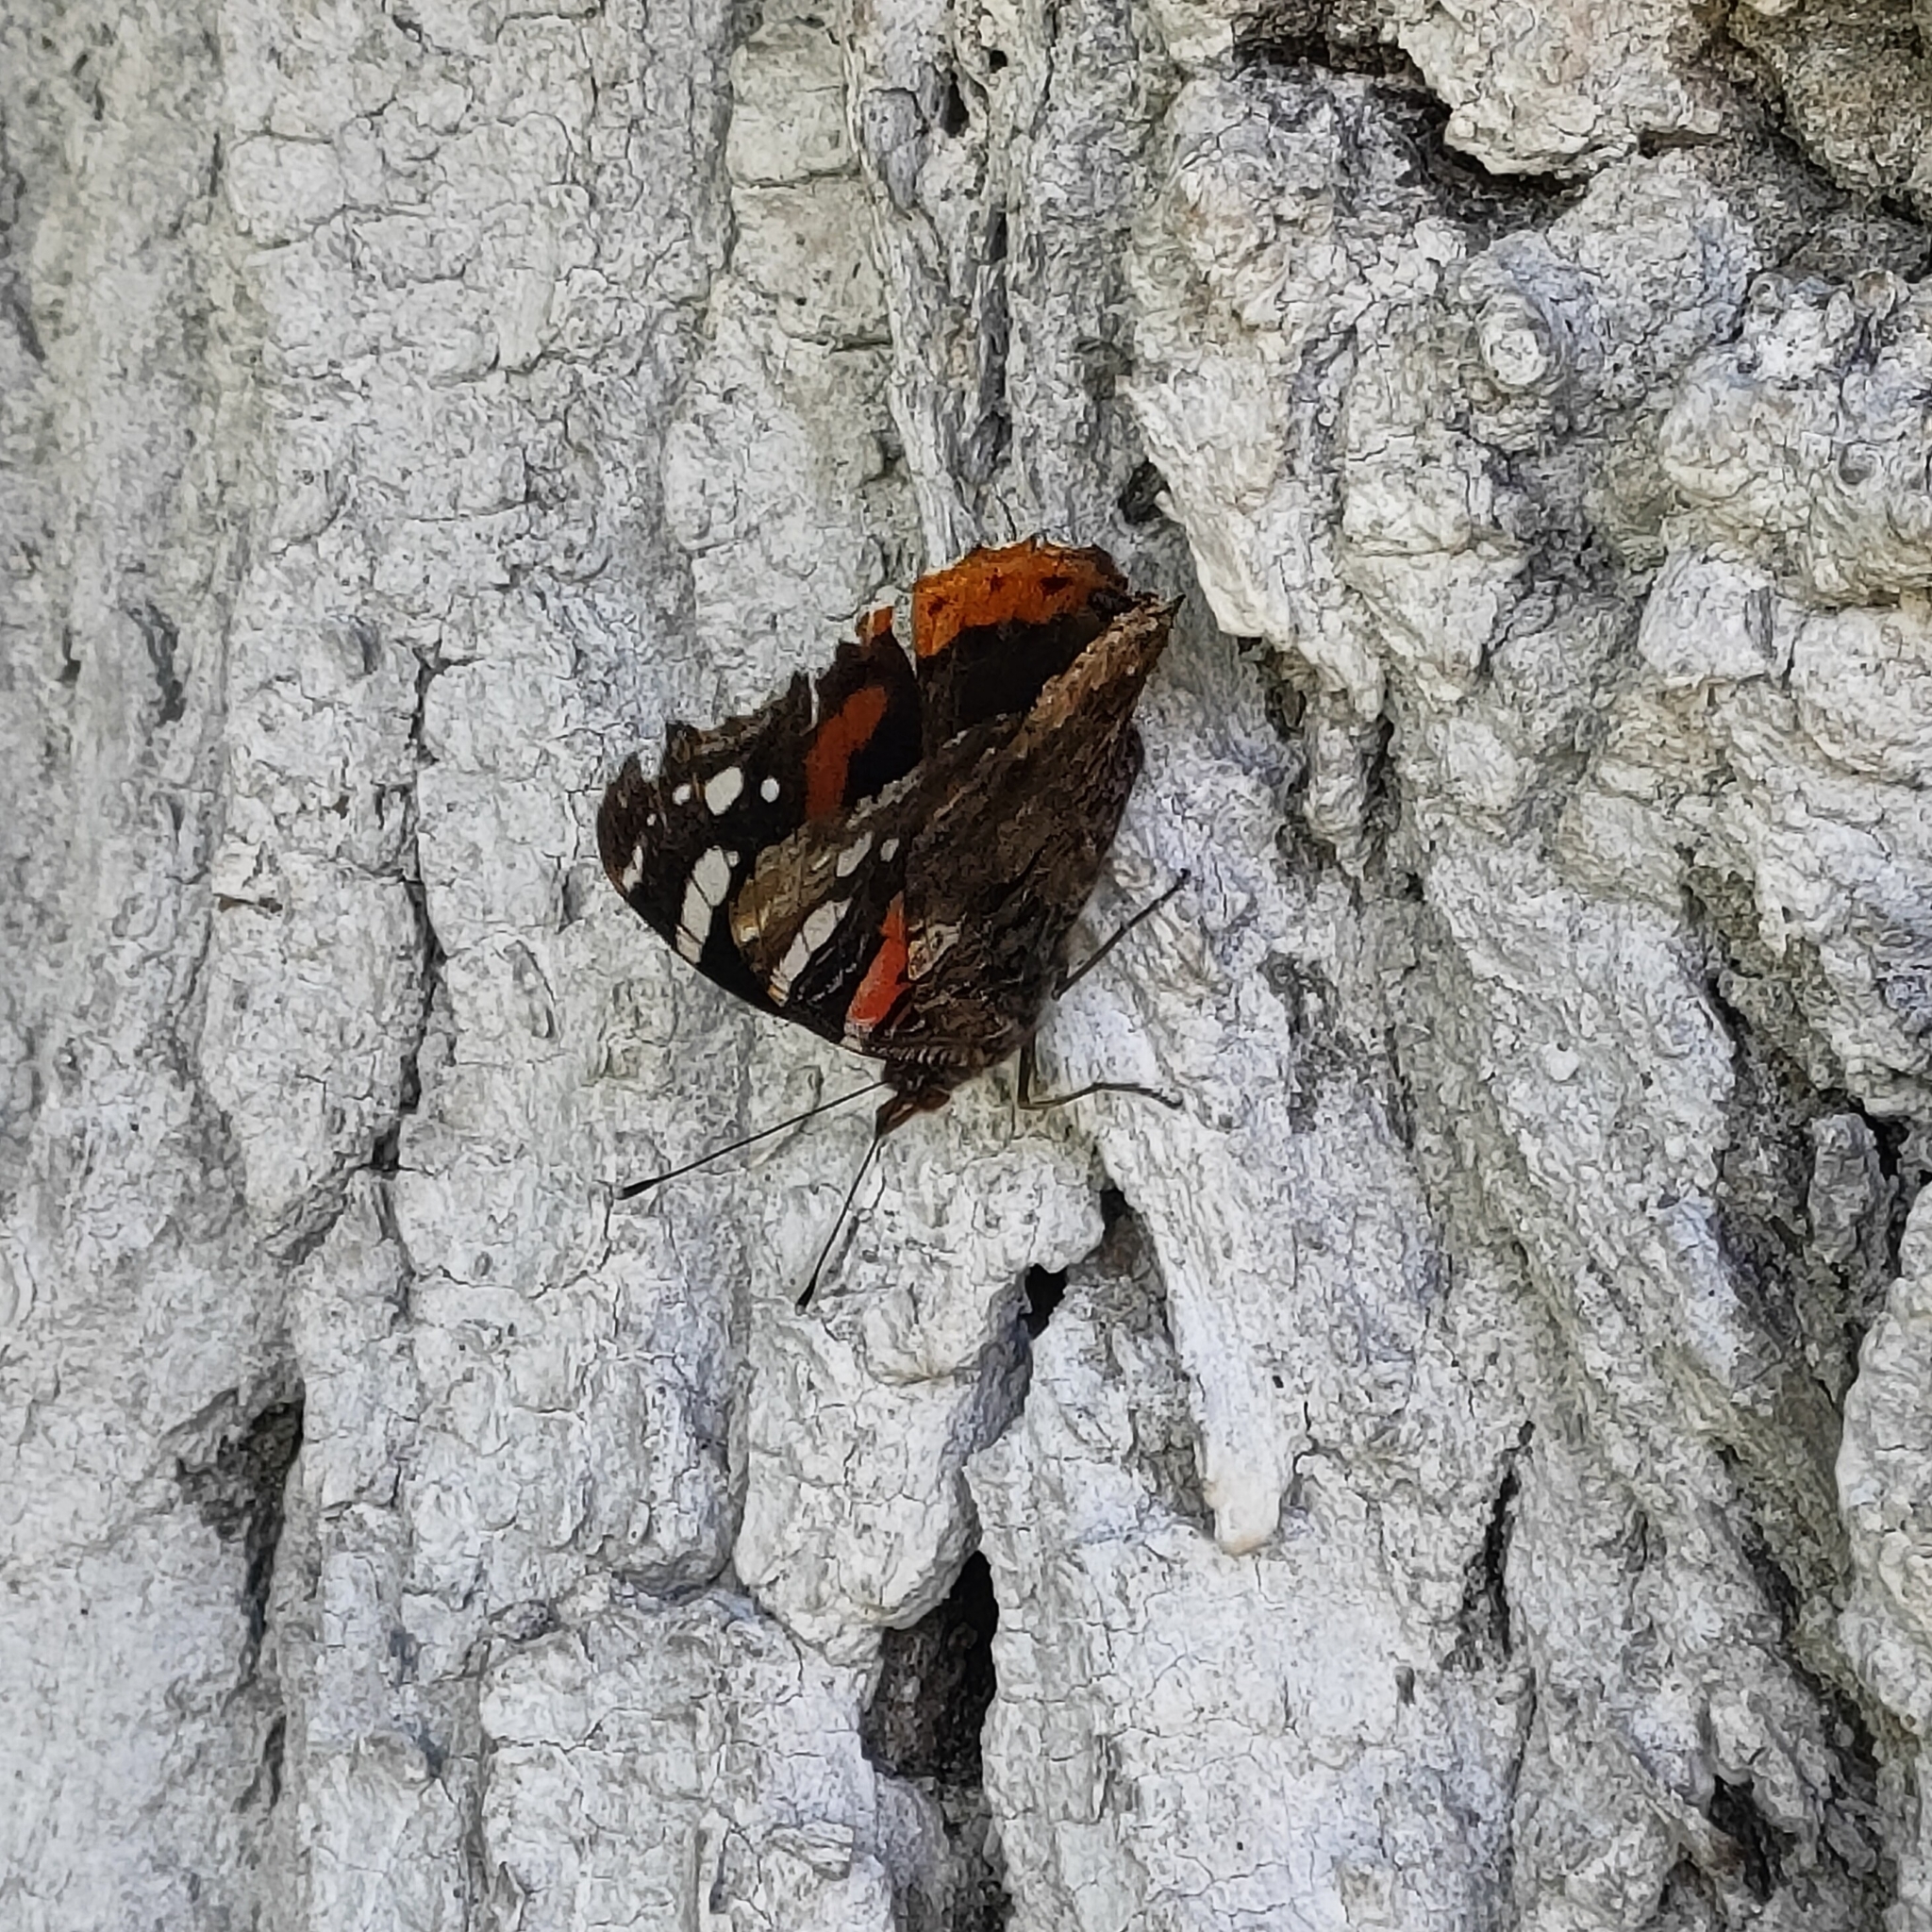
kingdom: Animalia
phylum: Arthropoda
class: Insecta
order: Lepidoptera
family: Nymphalidae
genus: Vanessa
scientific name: Vanessa atalanta
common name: Red admiral
